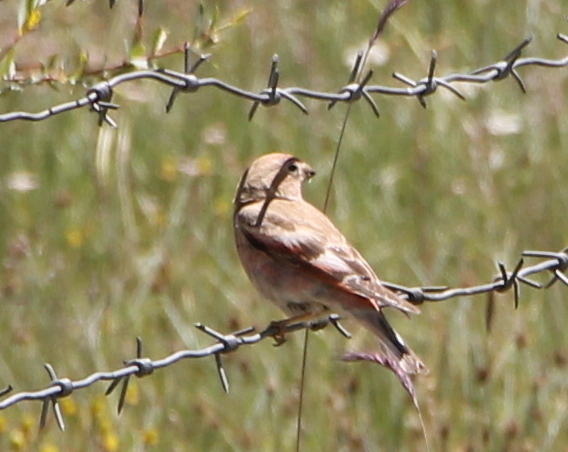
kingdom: Animalia
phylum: Chordata
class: Aves
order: Passeriformes
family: Fringillidae
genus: Bucanetes
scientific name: Bucanetes mongolicus
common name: Mongolian finch
